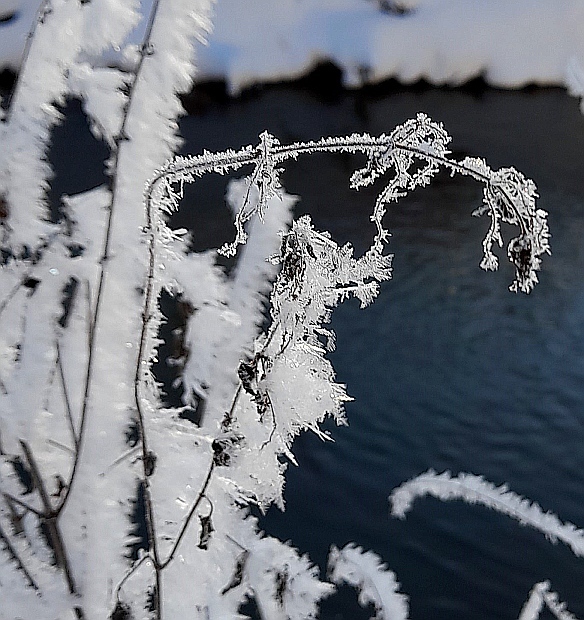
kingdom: Plantae
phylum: Tracheophyta
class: Magnoliopsida
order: Rosales
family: Urticaceae
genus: Urtica
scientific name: Urtica dioica
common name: Common nettle
